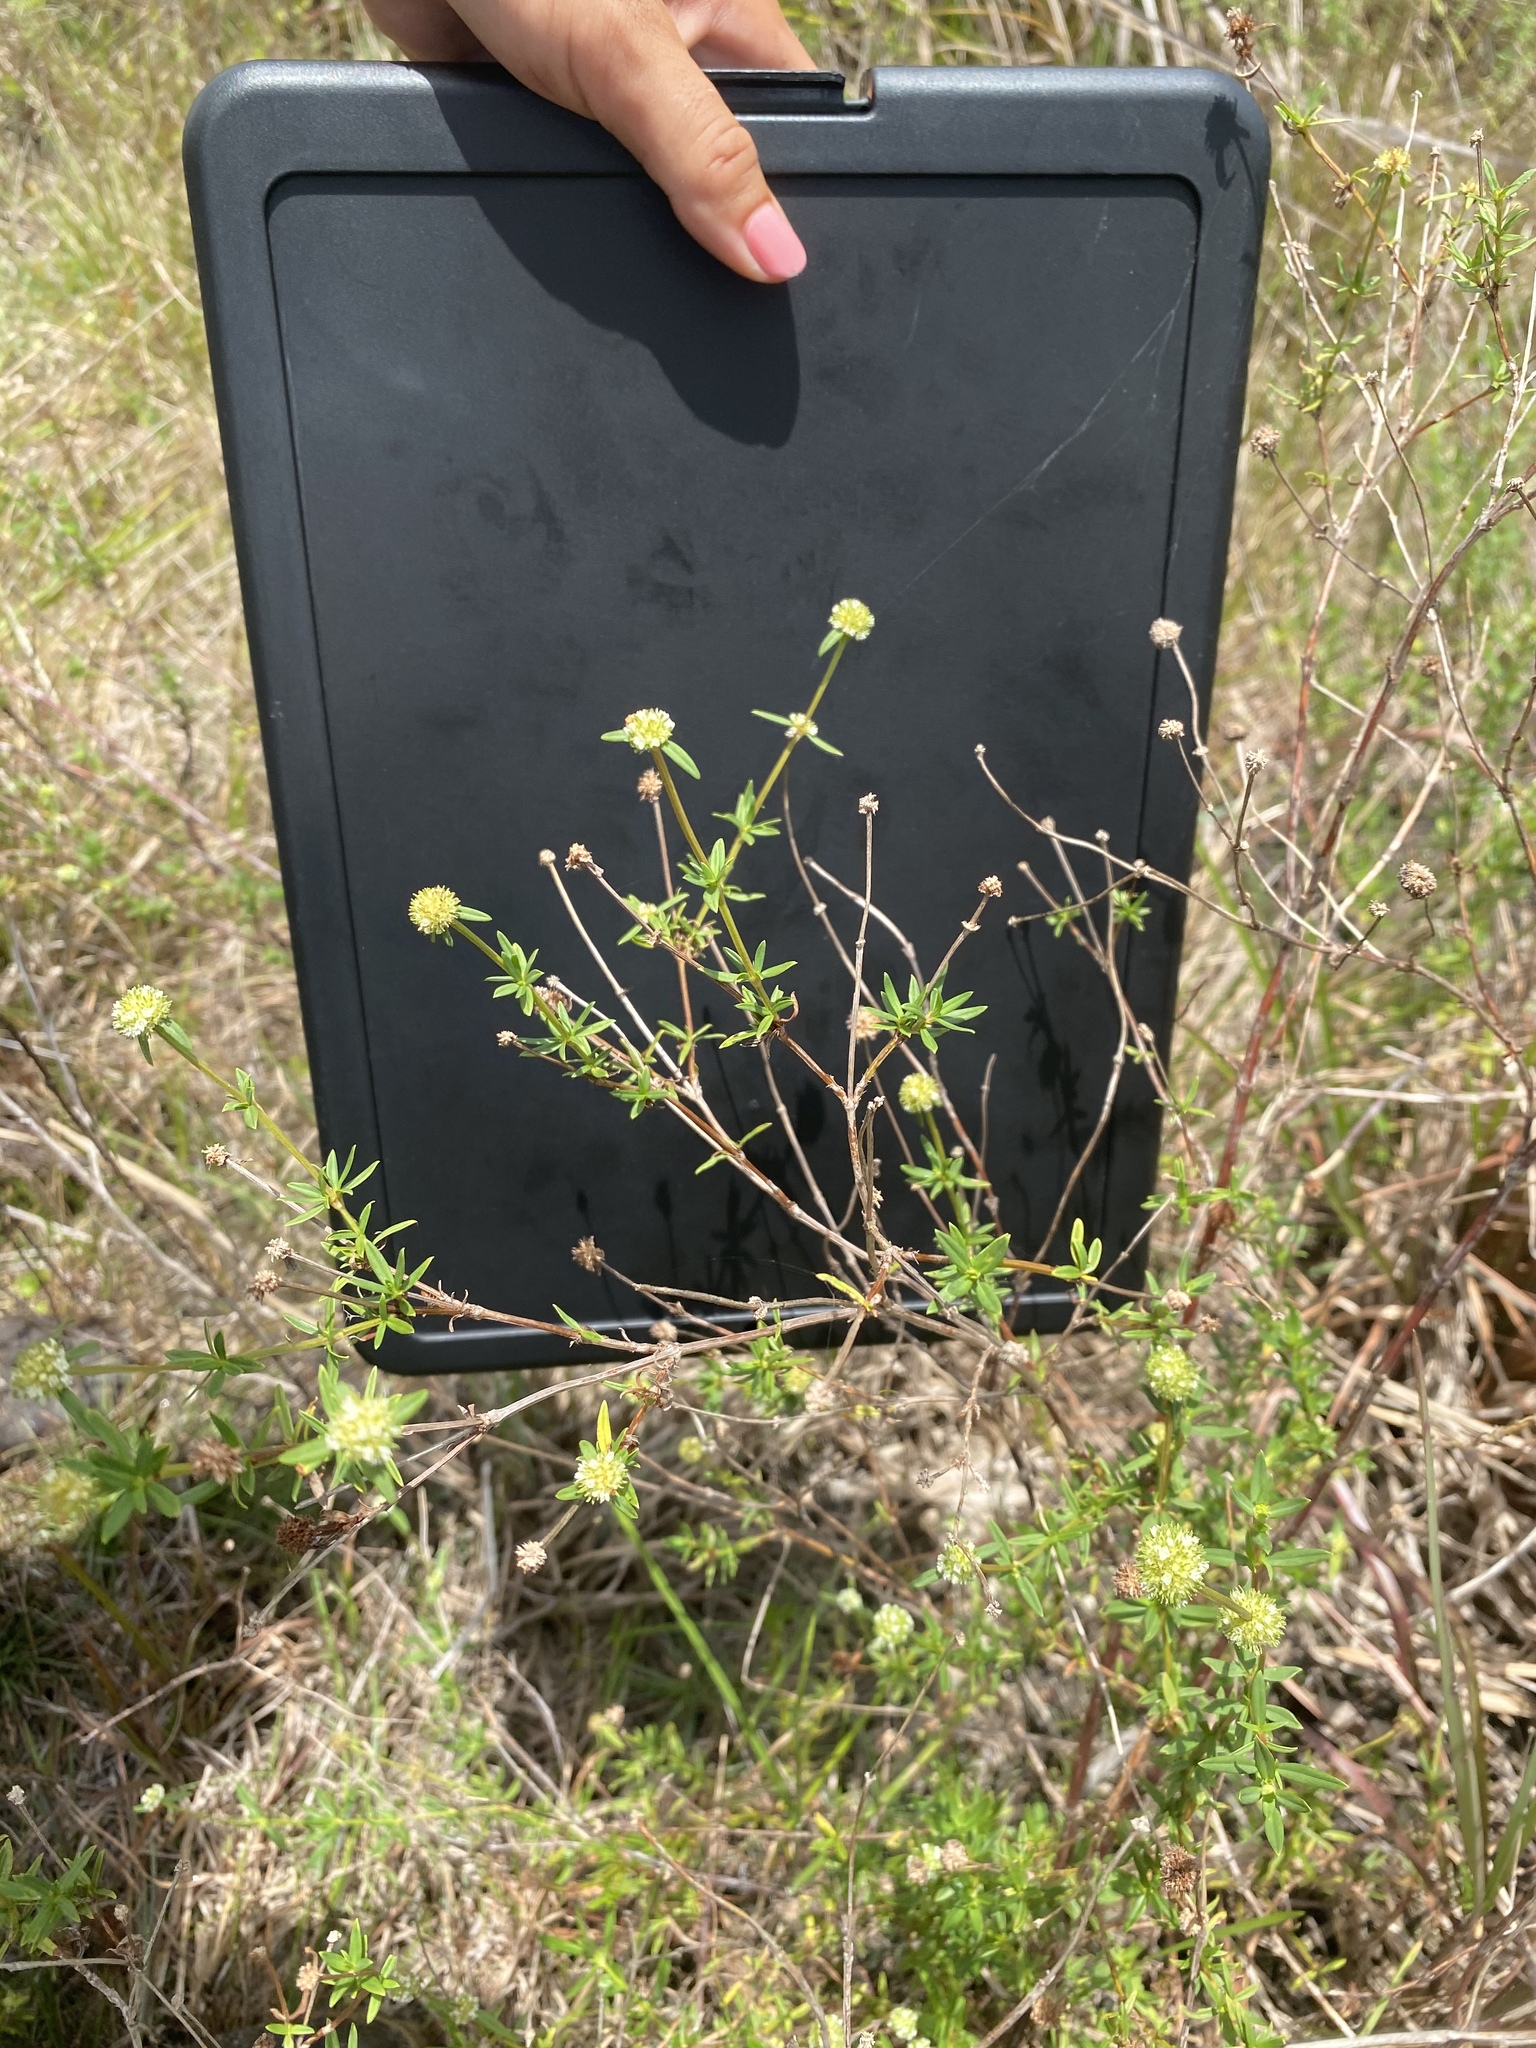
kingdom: Plantae
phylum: Tracheophyta
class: Magnoliopsida
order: Gentianales
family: Rubiaceae
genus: Spermacoce
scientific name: Spermacoce verticillata
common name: Shrubby false buttonweed
